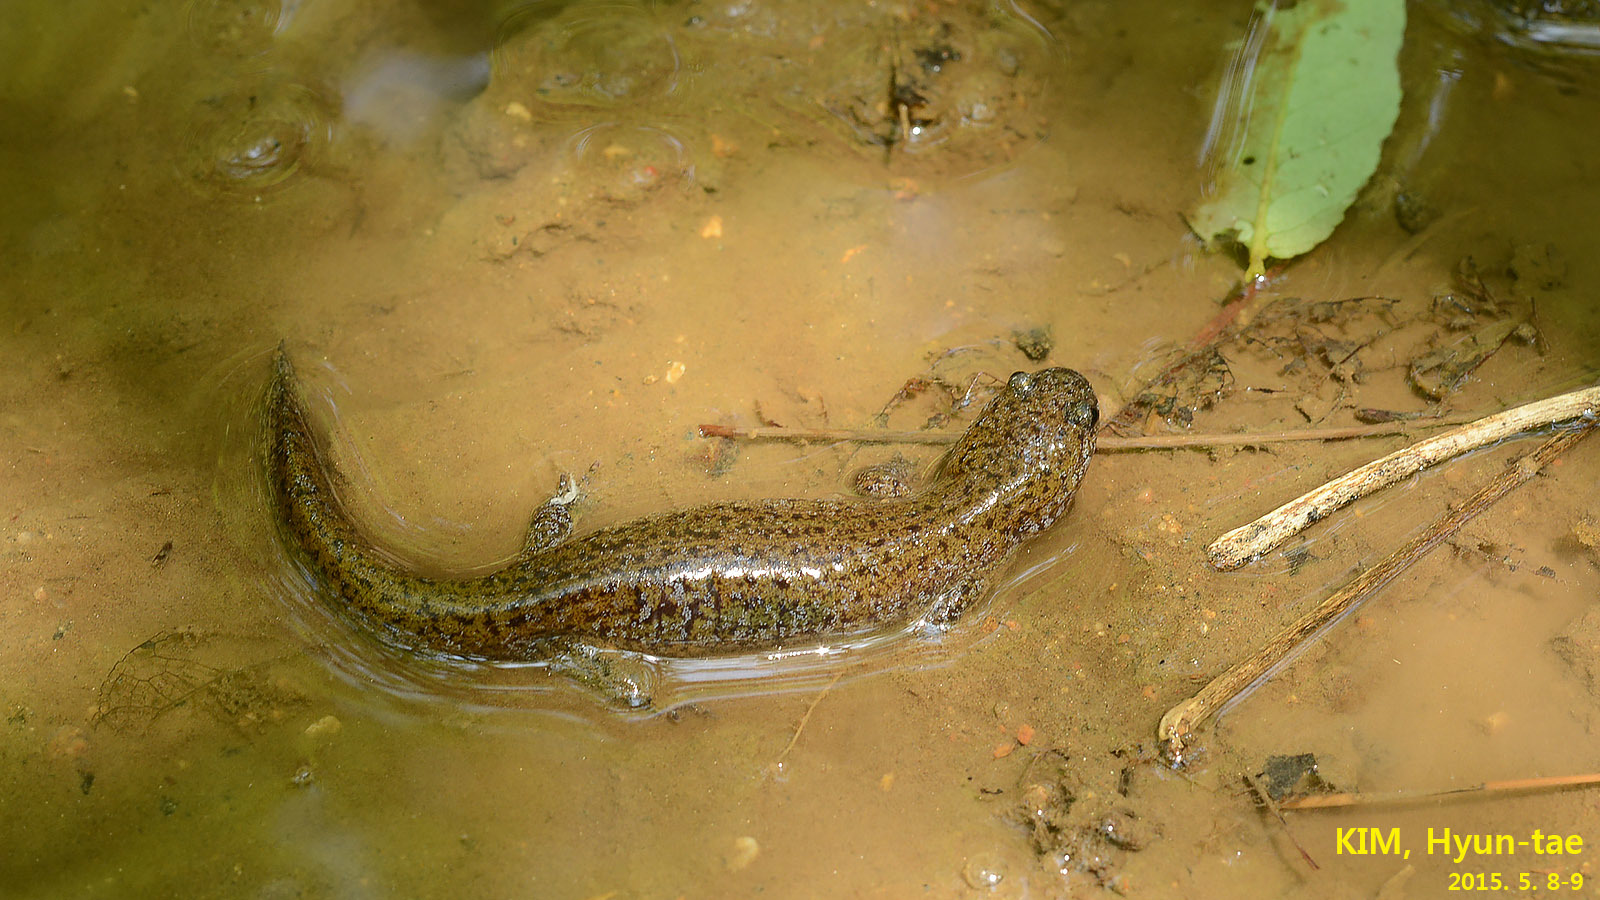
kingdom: Animalia
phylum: Chordata
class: Amphibia
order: Caudata
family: Hynobiidae
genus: Hynobius
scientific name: Hynobius quelpaertensis
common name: Cheju salamander
